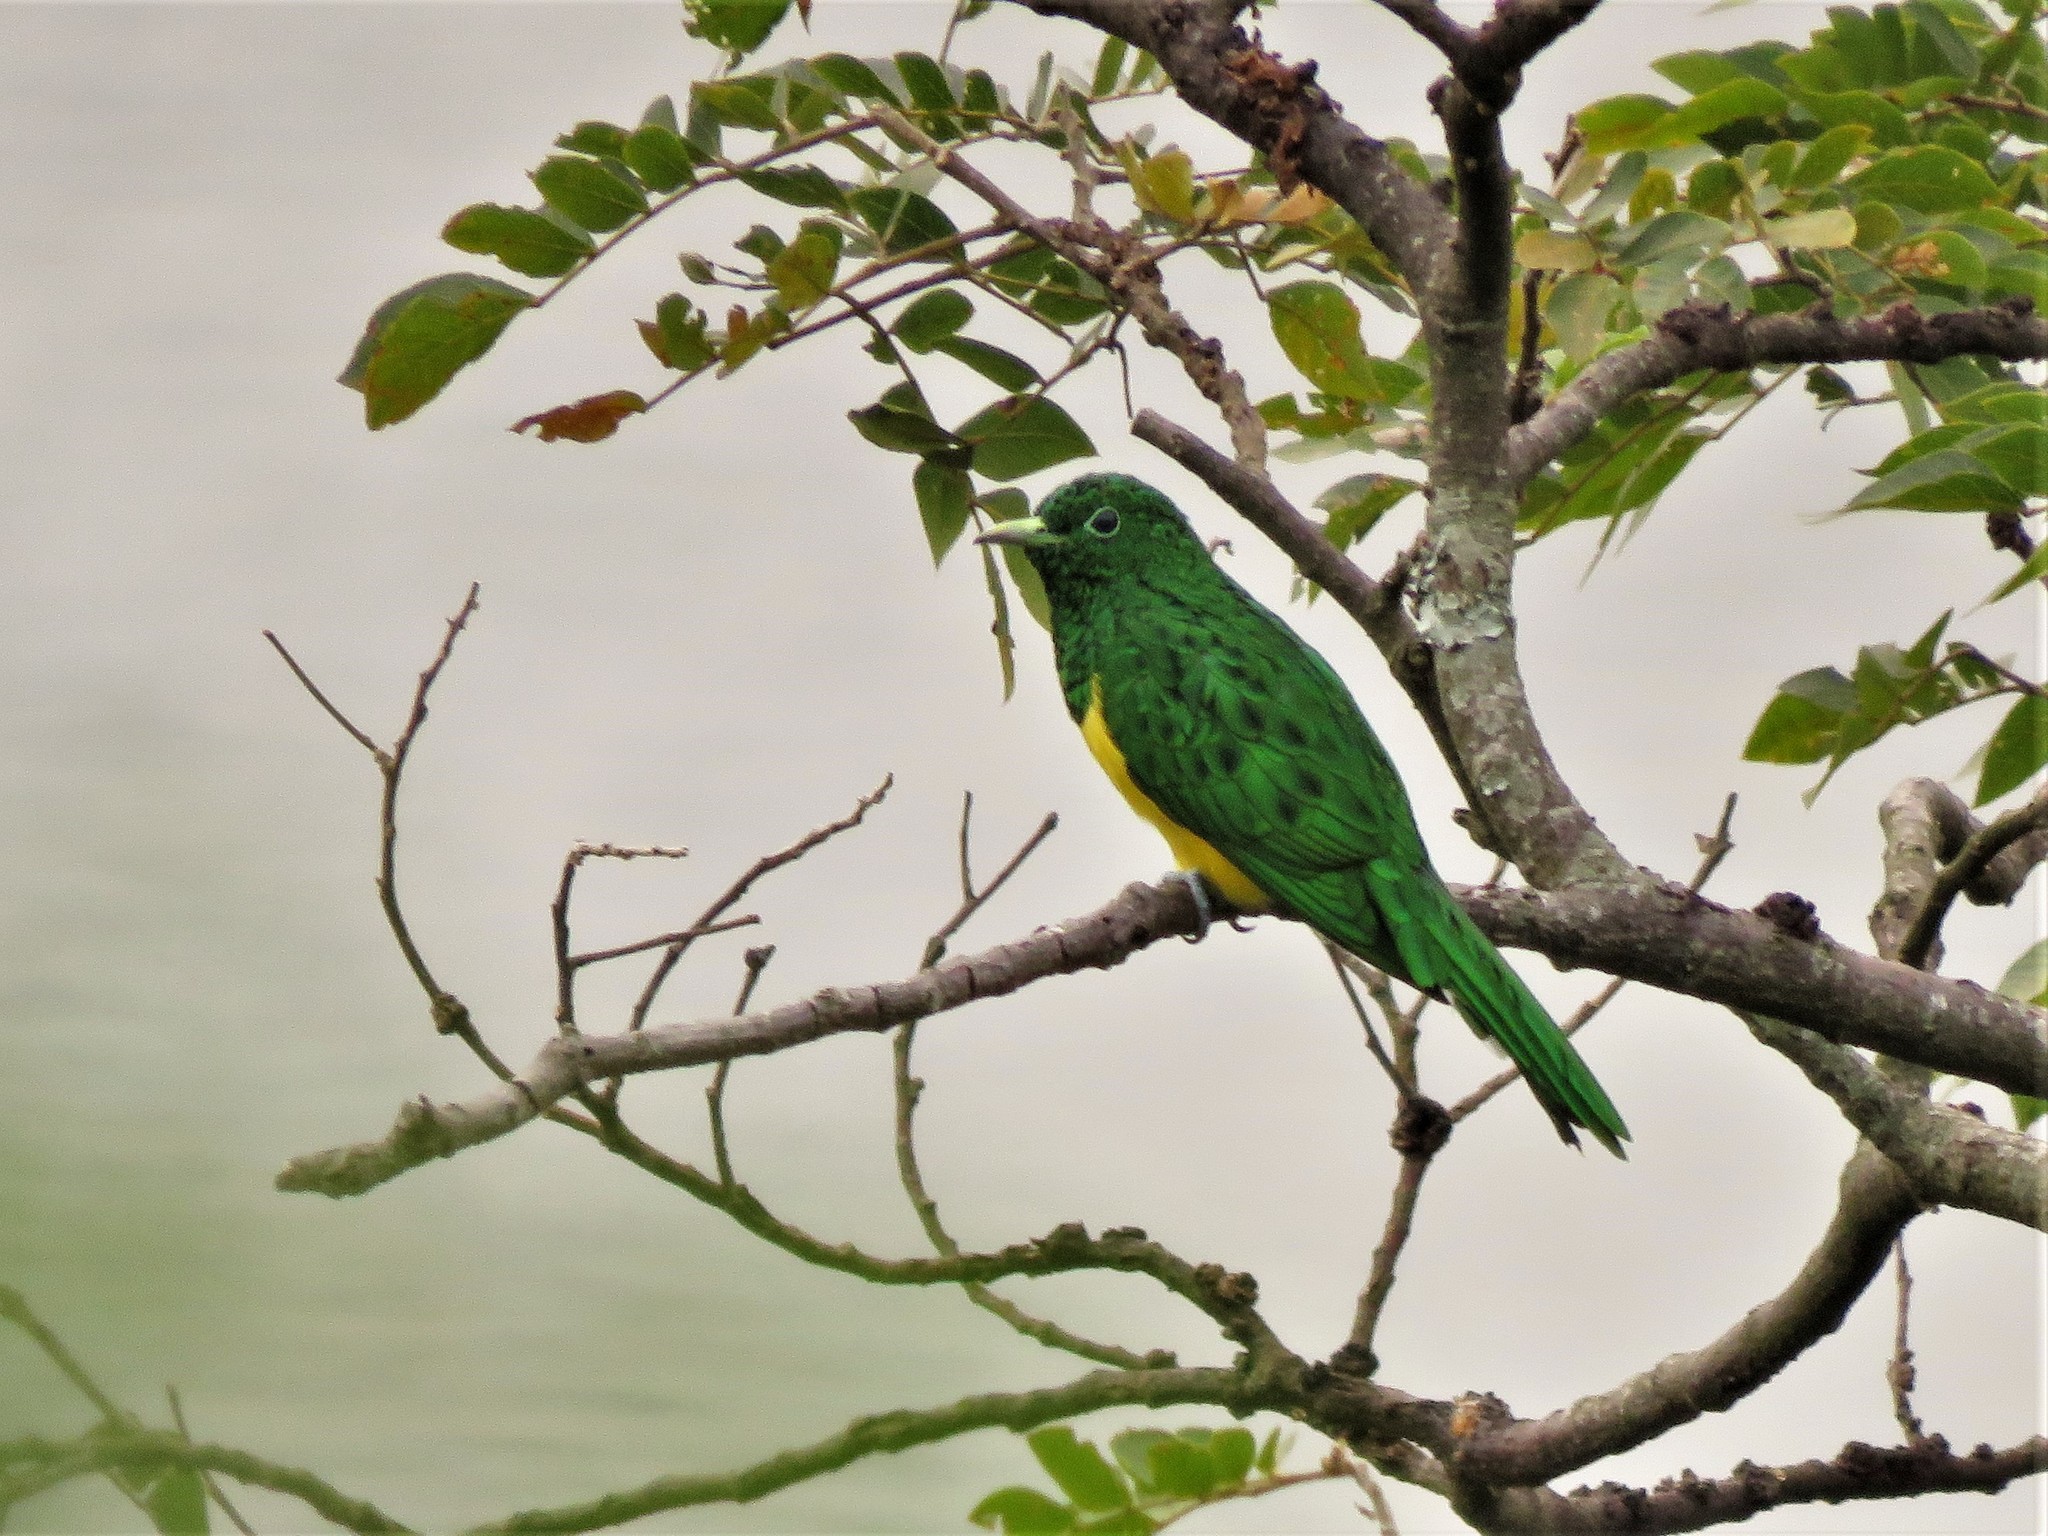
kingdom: Animalia
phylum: Chordata
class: Aves
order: Cuculiformes
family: Cuculidae
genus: Chrysococcyx
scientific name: Chrysococcyx cupreus
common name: African emerald cuckoo
